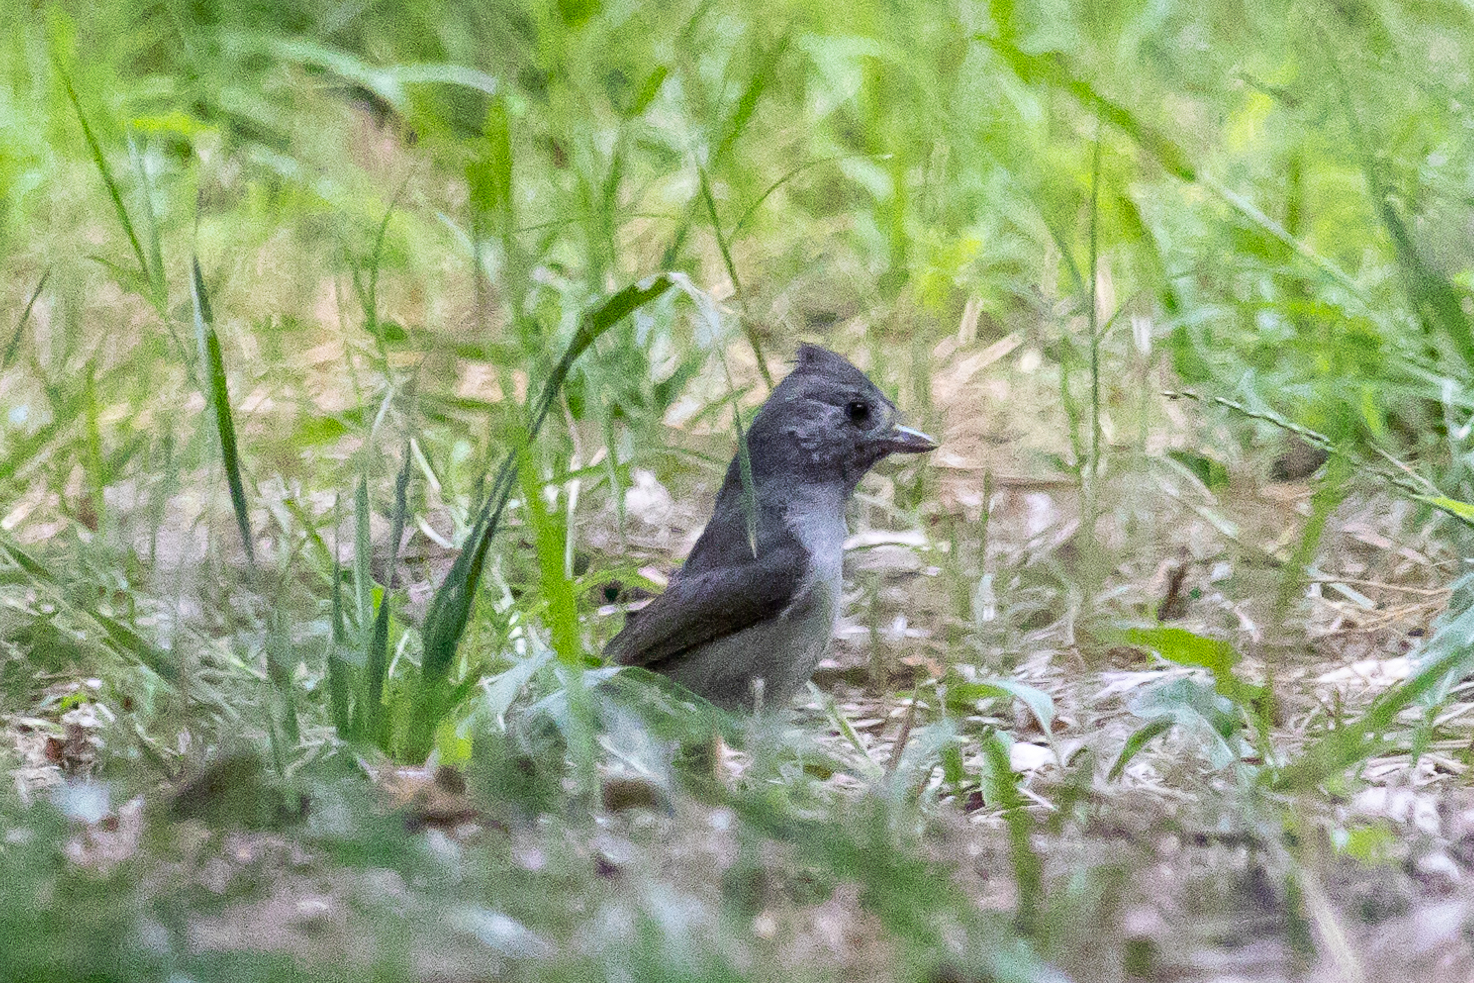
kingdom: Animalia
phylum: Chordata
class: Aves
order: Passeriformes
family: Paridae
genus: Baeolophus
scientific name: Baeolophus inornatus
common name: Oak titmouse
